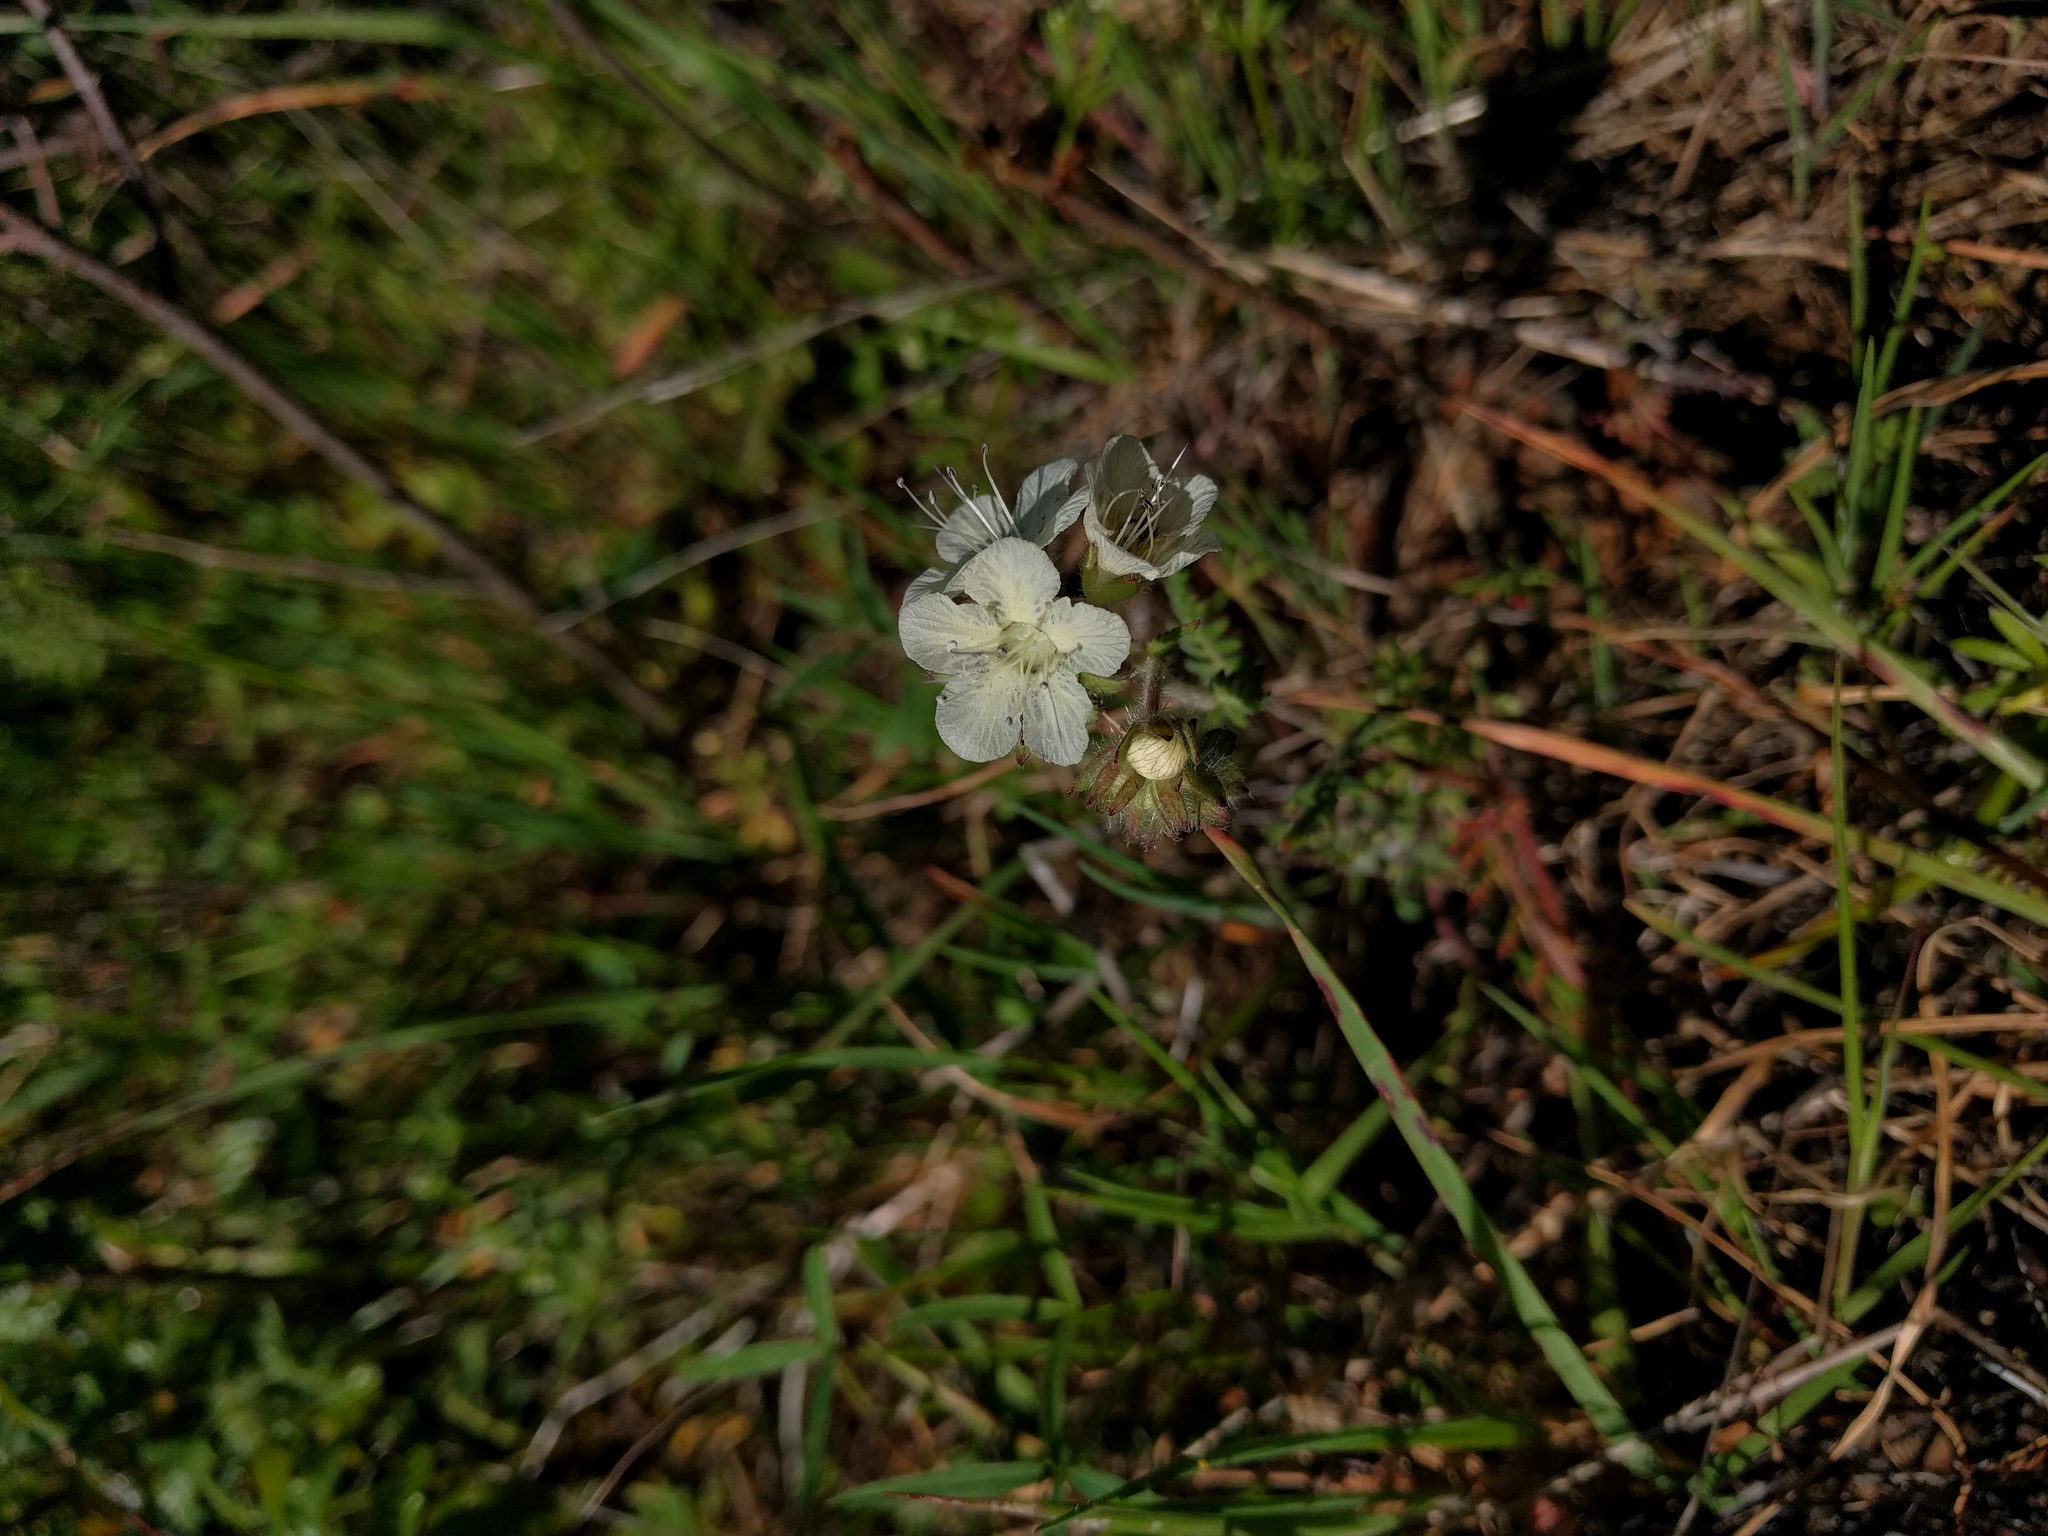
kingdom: Plantae
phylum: Tracheophyta
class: Magnoliopsida
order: Boraginales
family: Hydrophyllaceae
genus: Phacelia
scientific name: Phacelia distans
